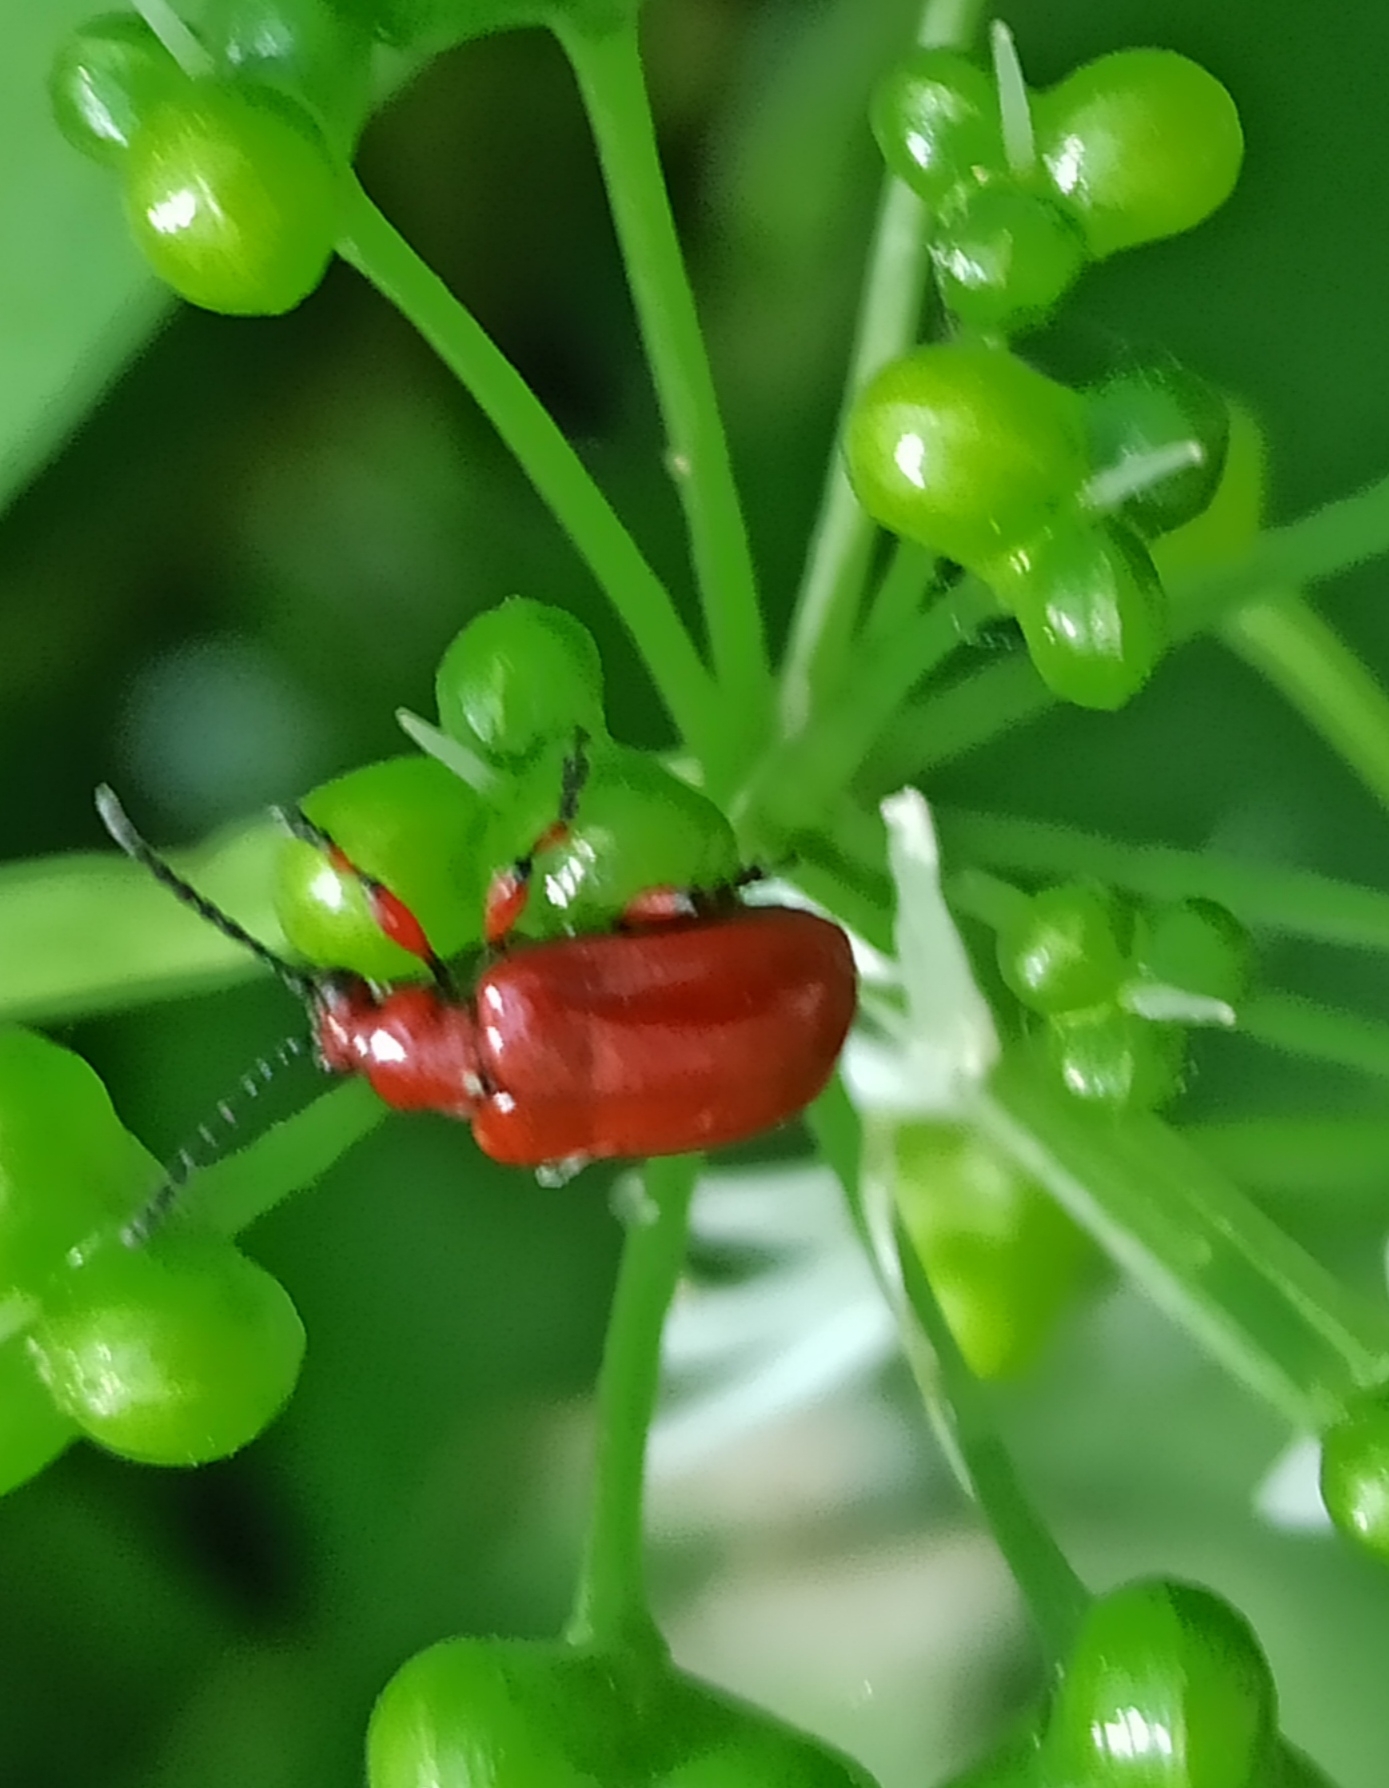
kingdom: Animalia
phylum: Arthropoda
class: Insecta
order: Coleoptera
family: Chrysomelidae
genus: Lilioceris
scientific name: Lilioceris merdigera
